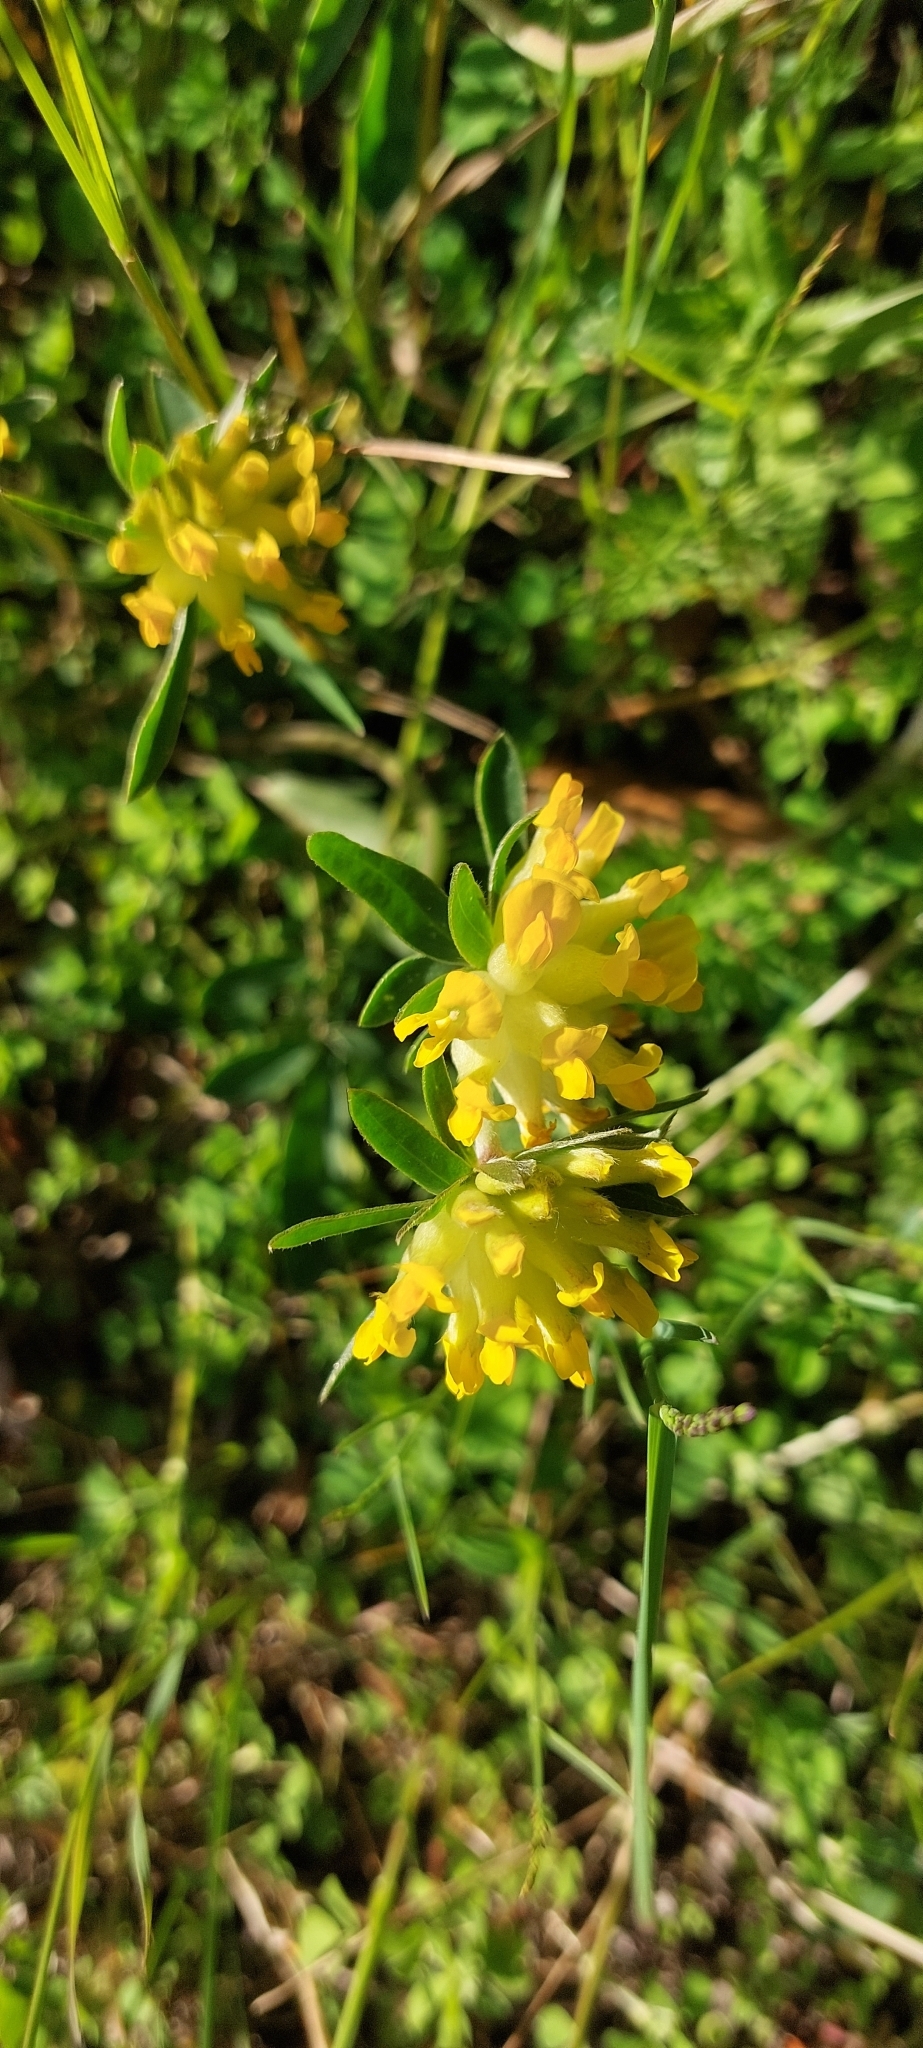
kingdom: Plantae
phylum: Tracheophyta
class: Magnoliopsida
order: Fabales
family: Fabaceae
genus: Anthyllis
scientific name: Anthyllis vulneraria
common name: Kidney vetch
